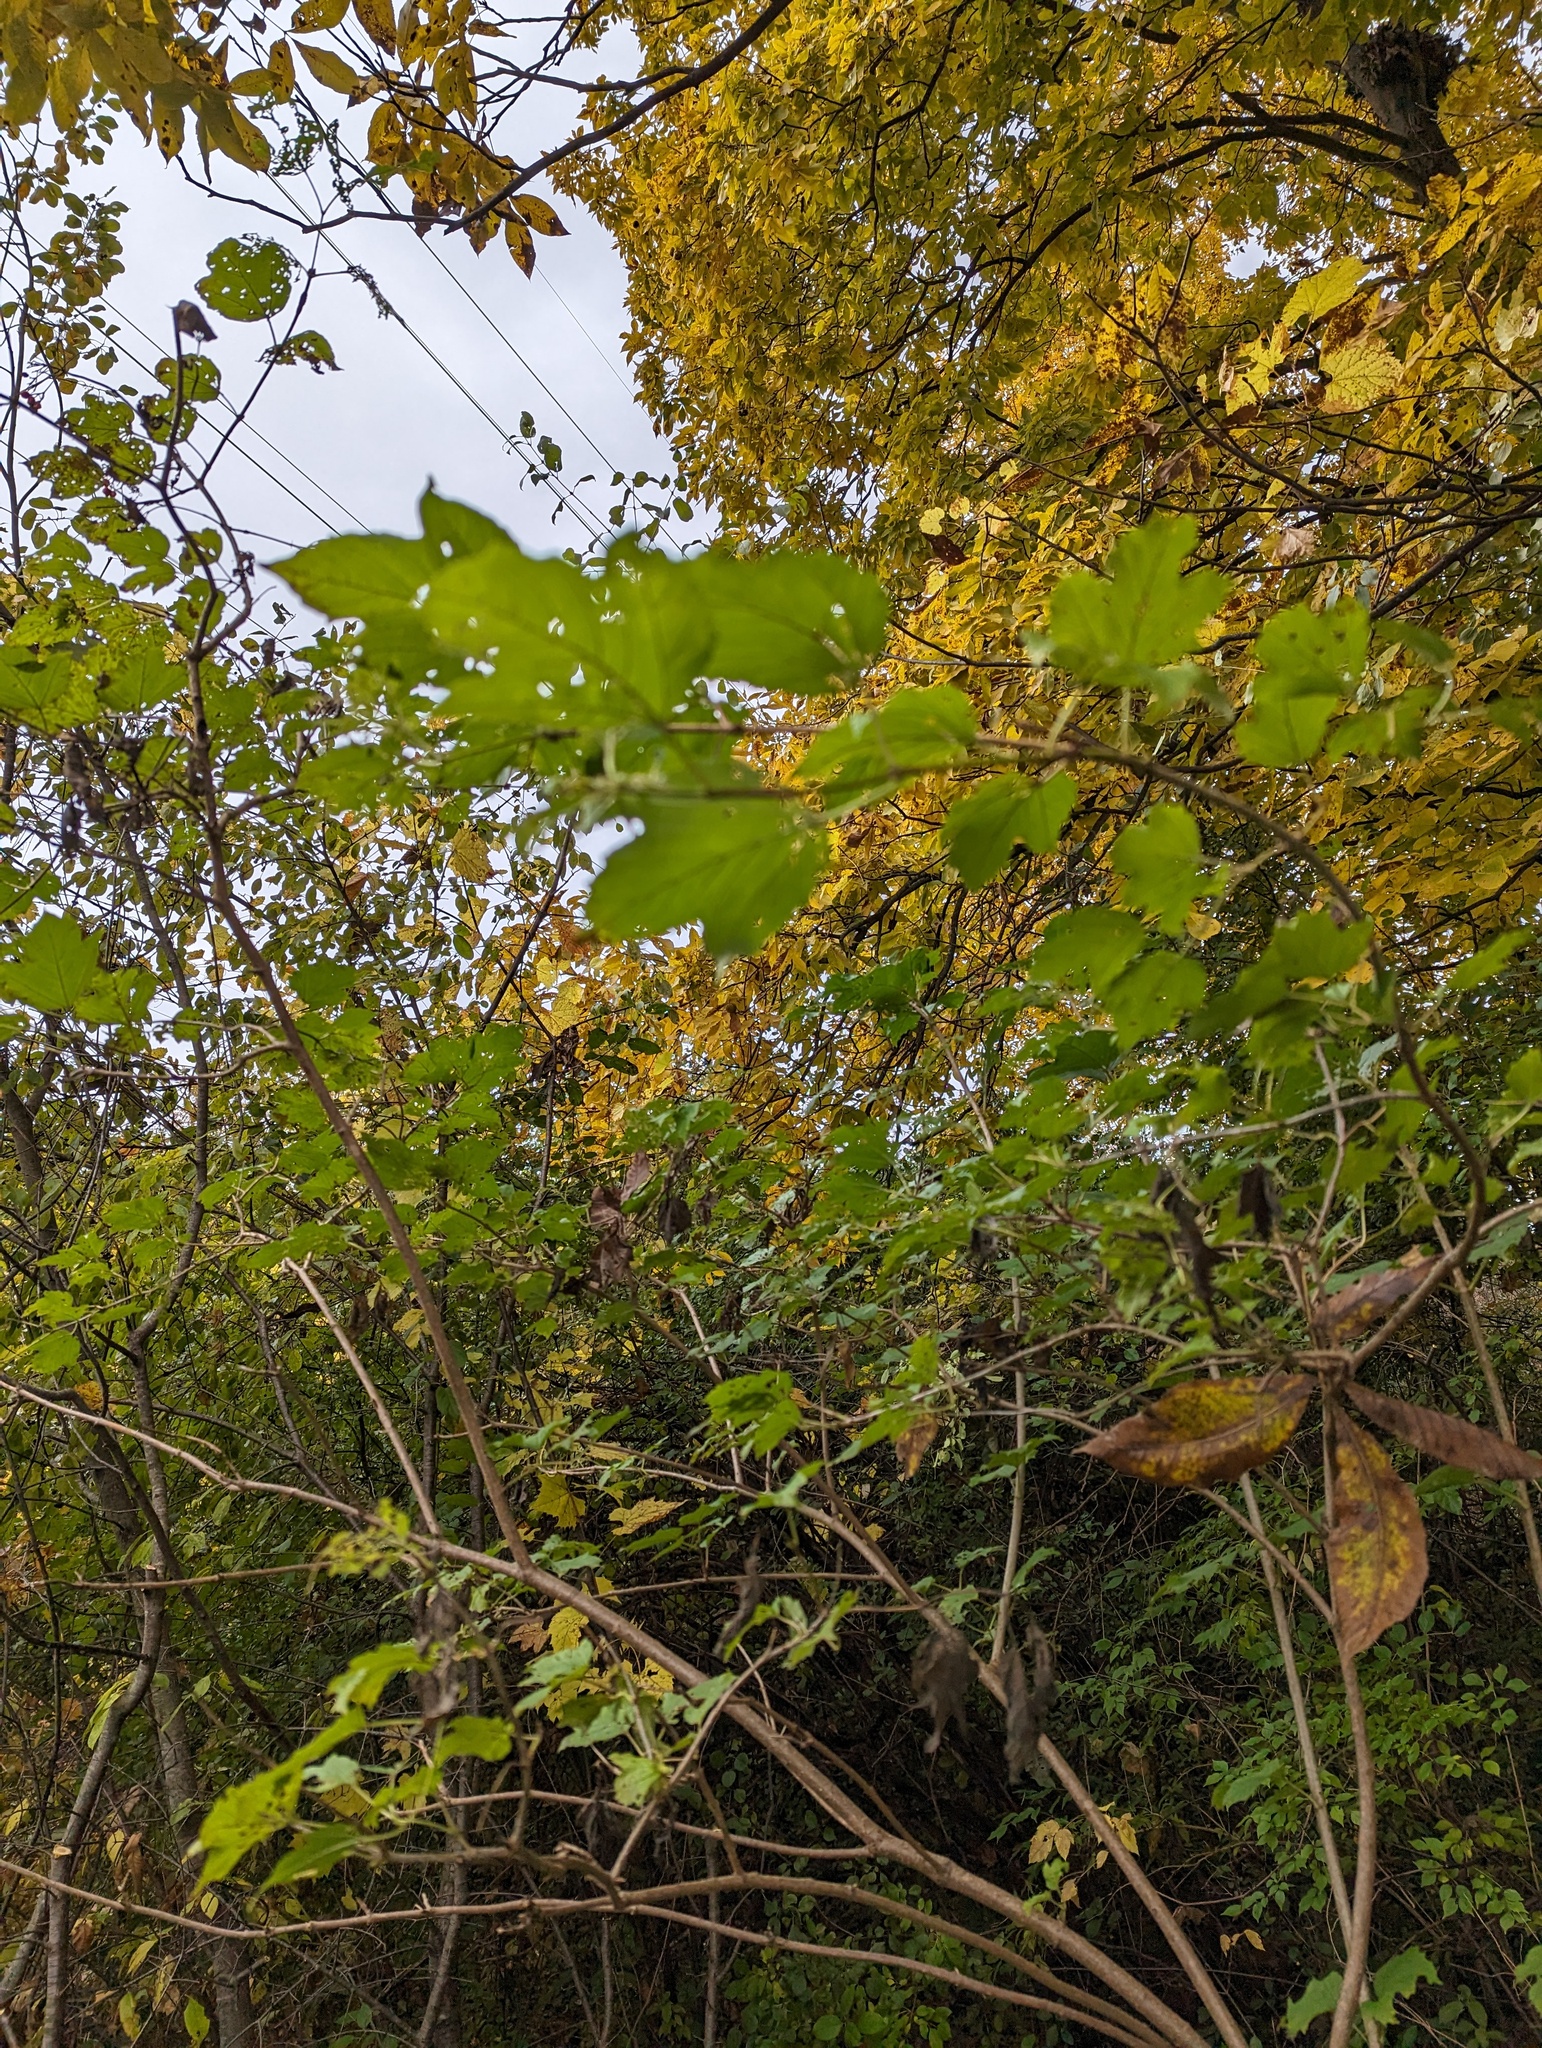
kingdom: Plantae
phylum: Tracheophyta
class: Magnoliopsida
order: Dipsacales
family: Viburnaceae
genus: Viburnum
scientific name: Viburnum opulus
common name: Guelder-rose
